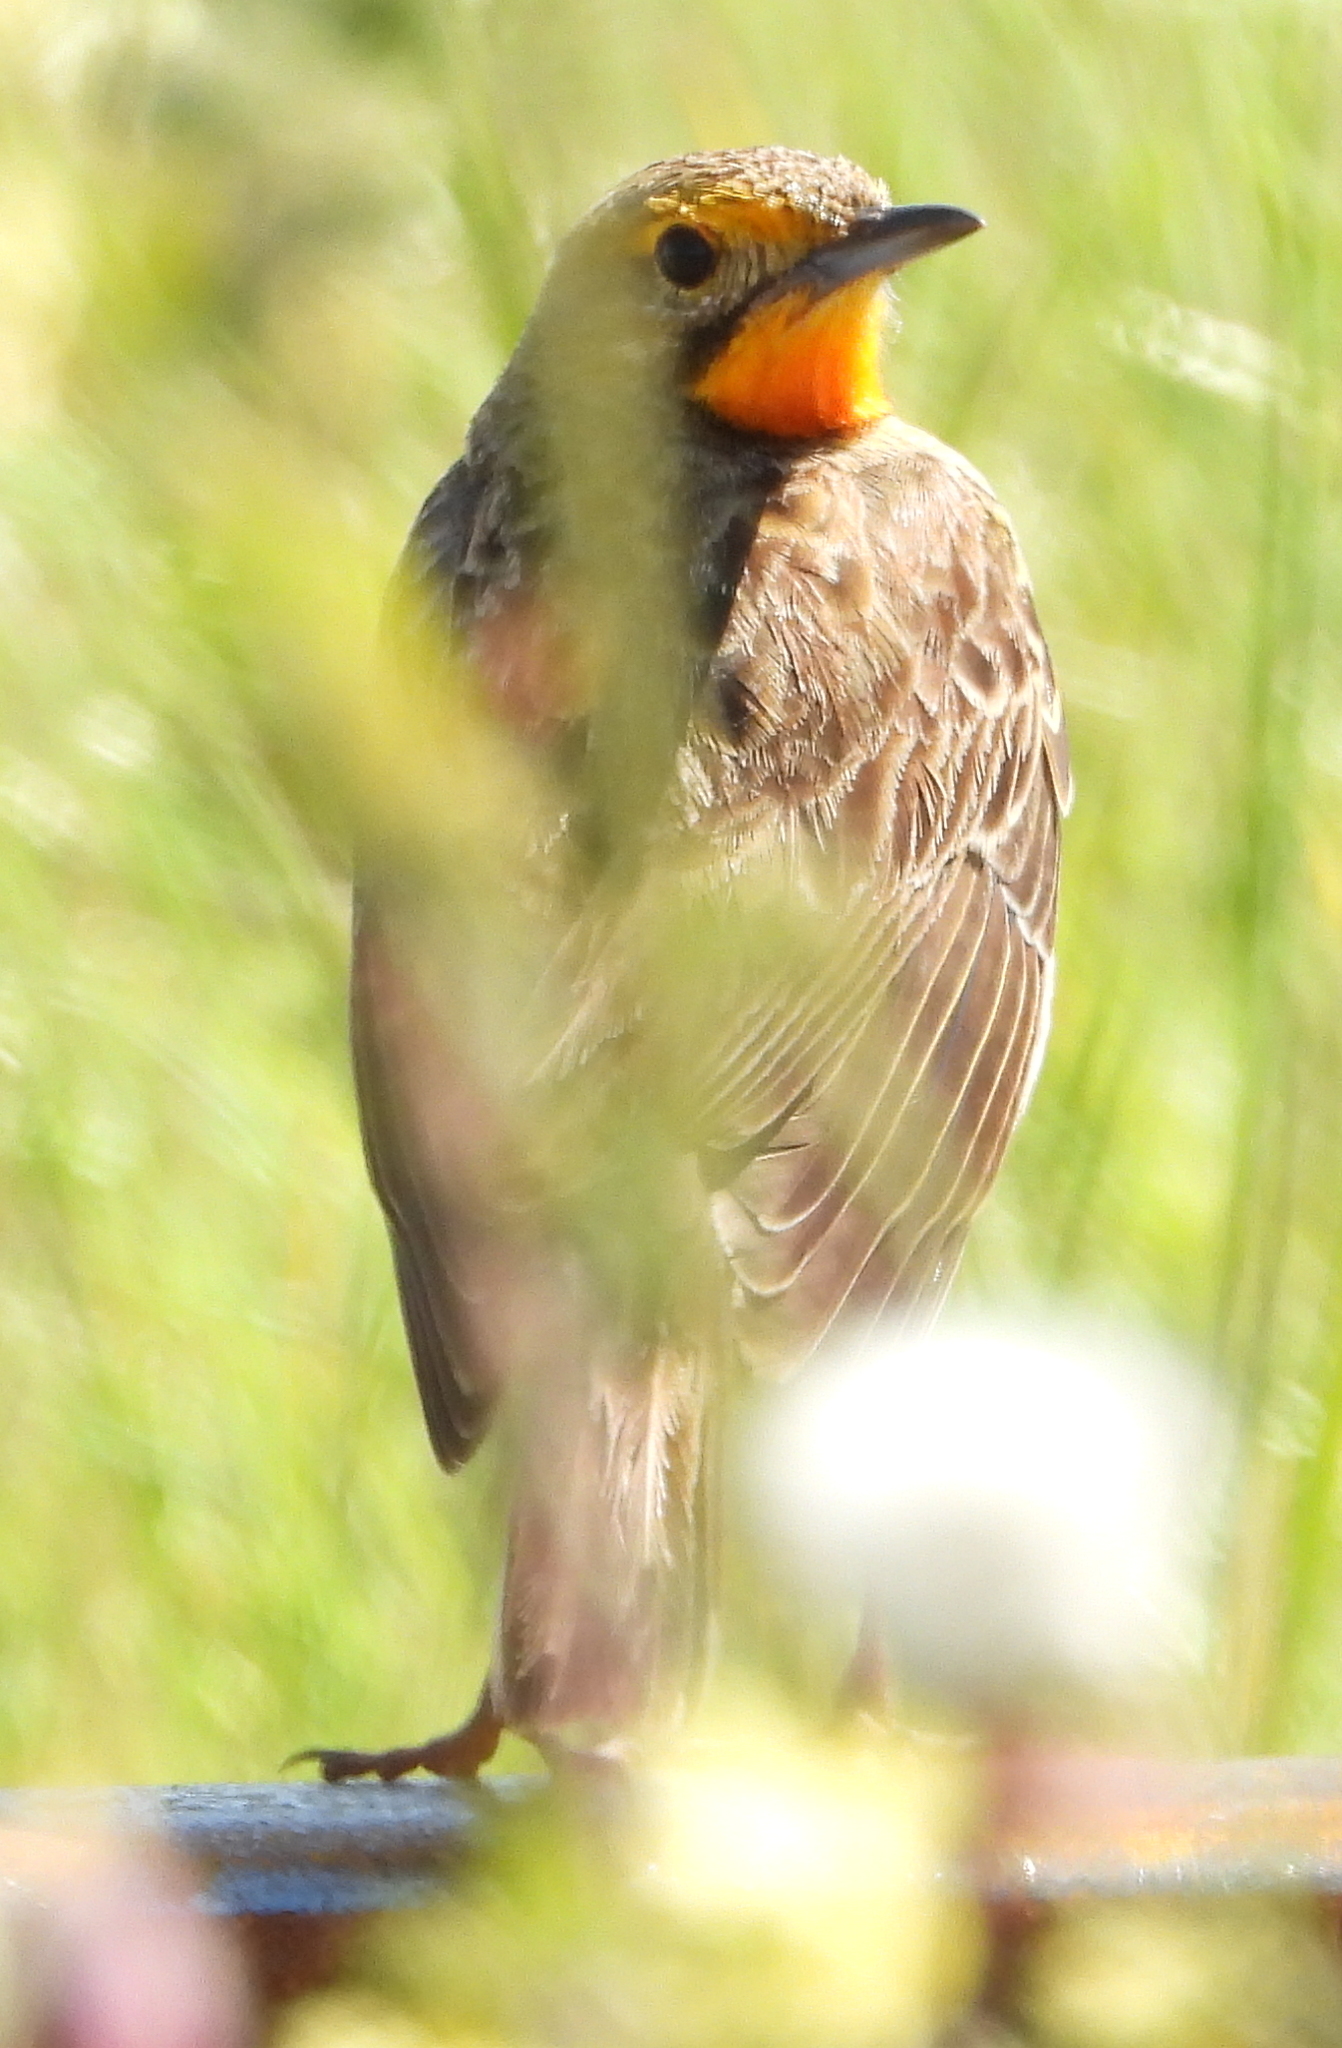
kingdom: Animalia
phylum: Chordata
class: Aves
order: Passeriformes
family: Motacillidae
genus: Macronyx
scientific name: Macronyx capensis
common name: Cape longclaw
